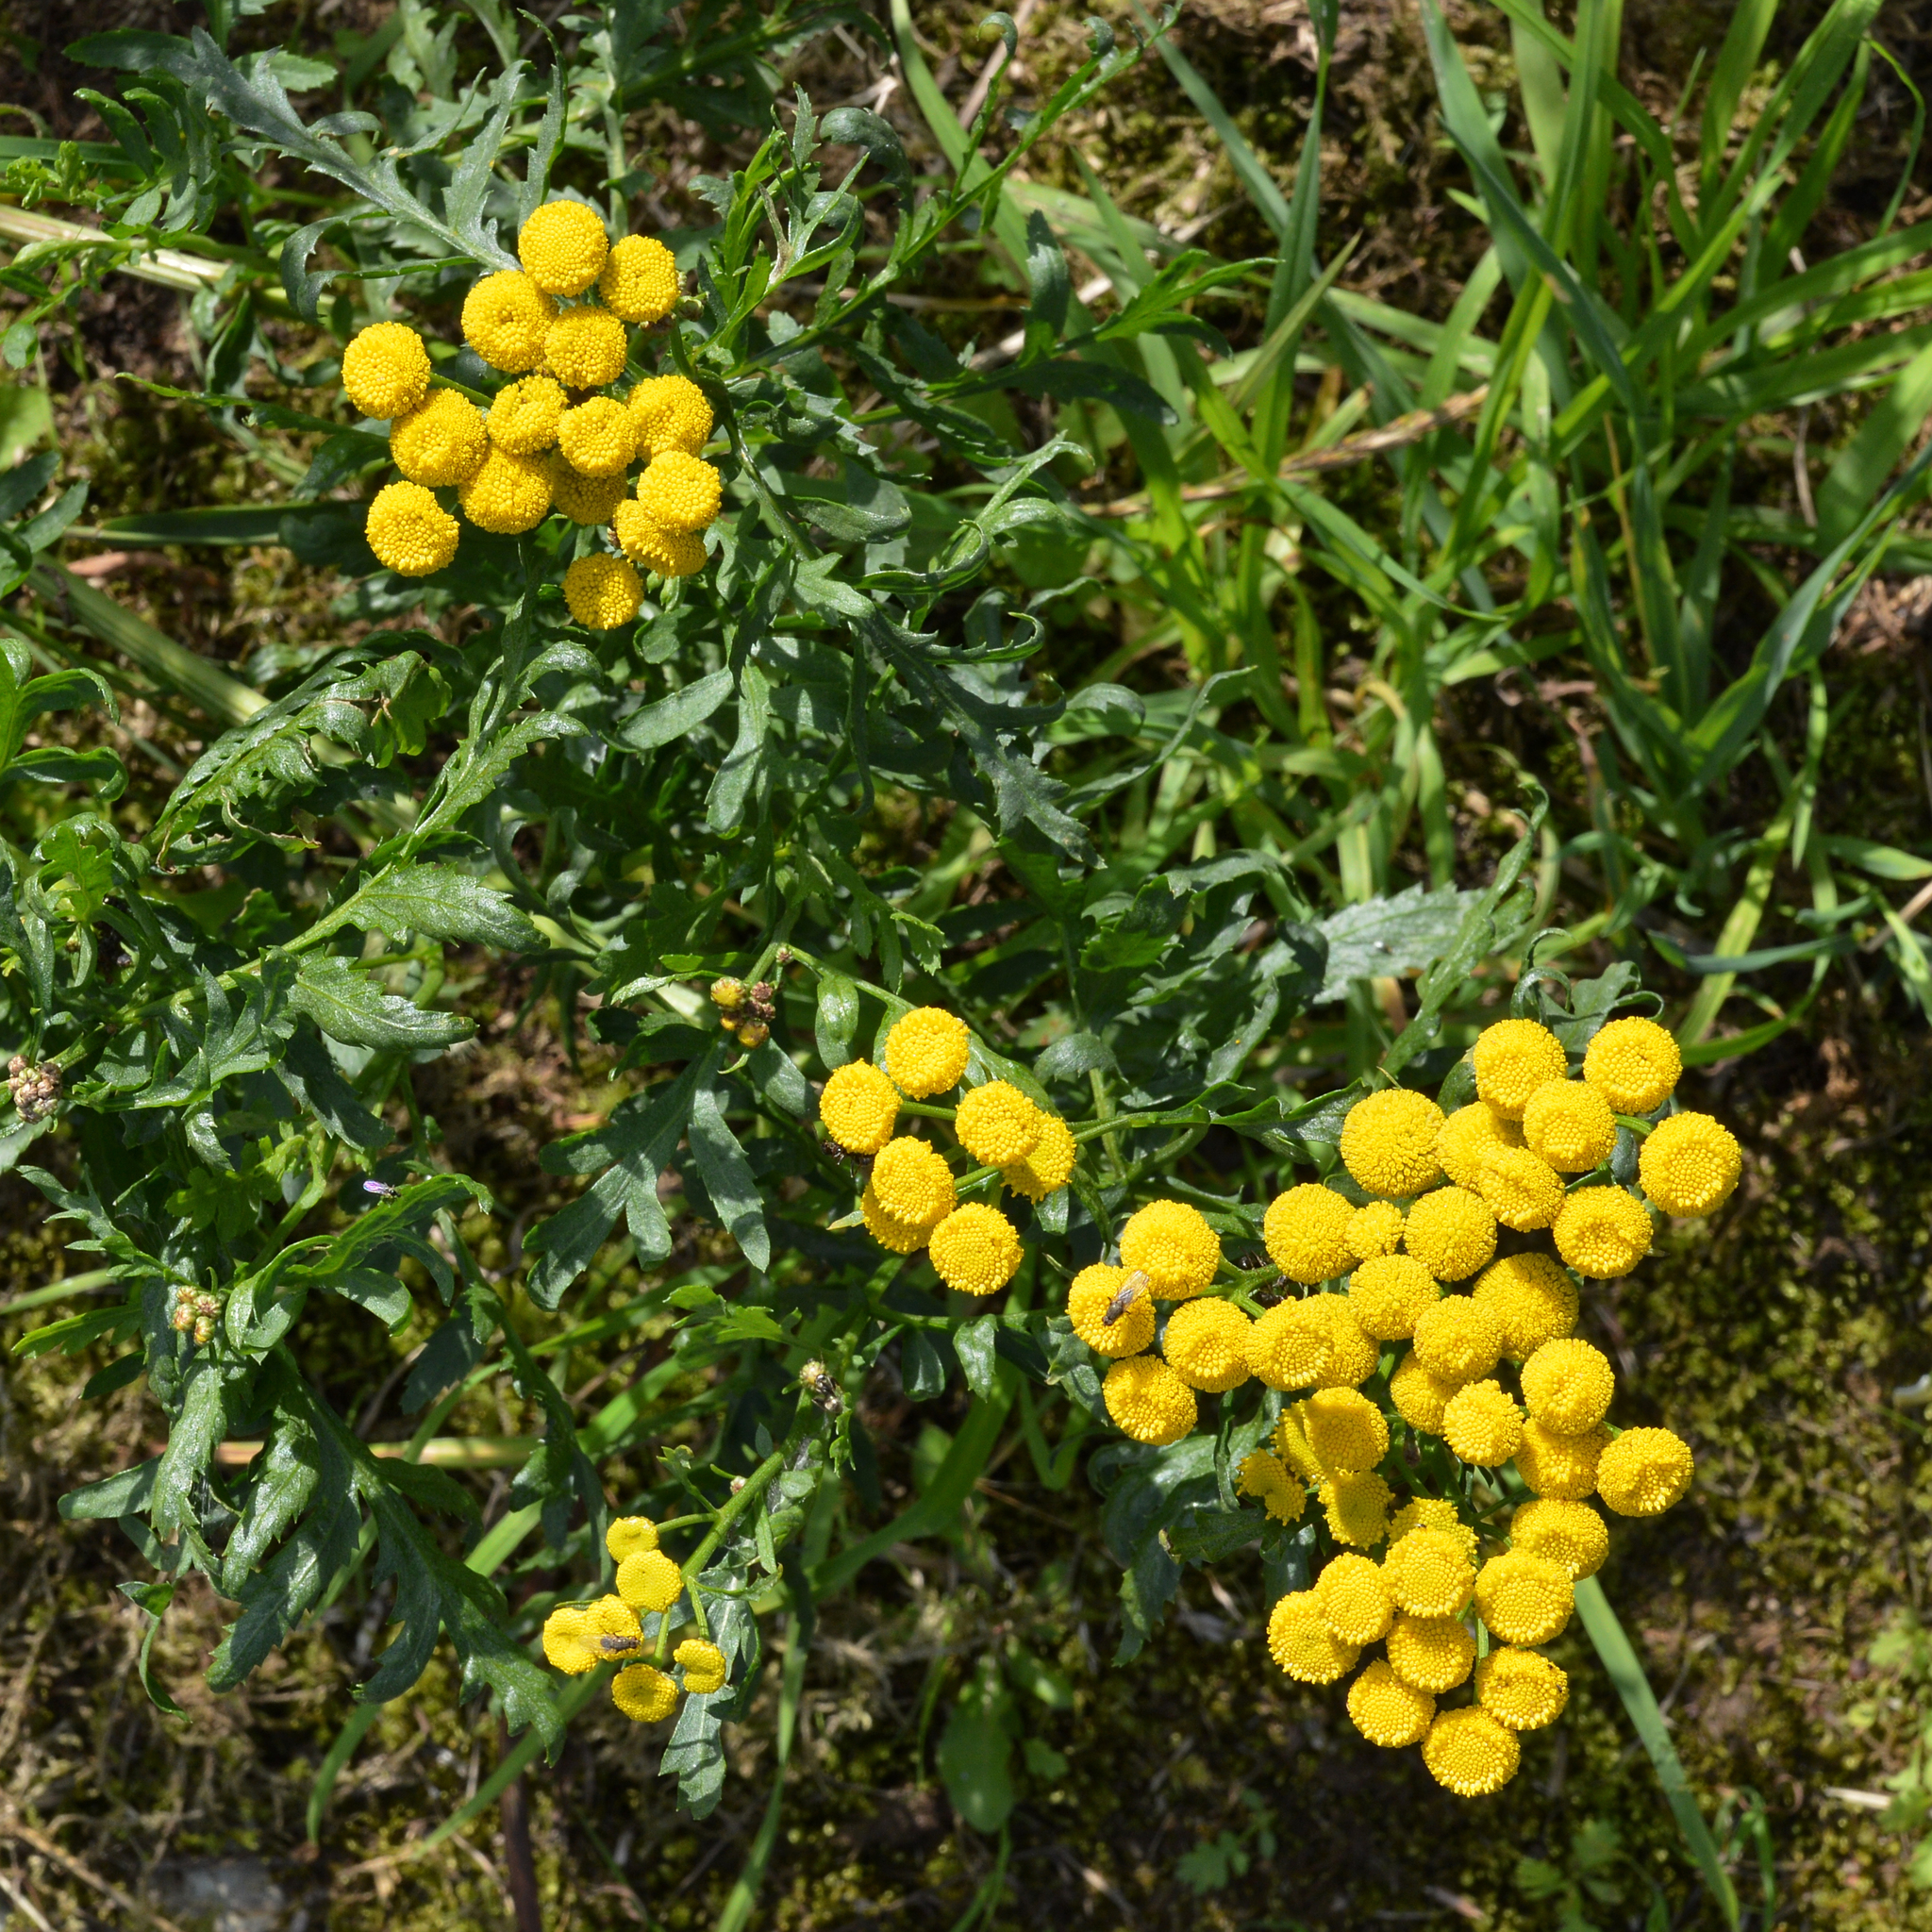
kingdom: Plantae
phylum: Tracheophyta
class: Magnoliopsida
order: Asterales
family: Asteraceae
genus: Tanacetum
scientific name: Tanacetum vulgare
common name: Common tansy
